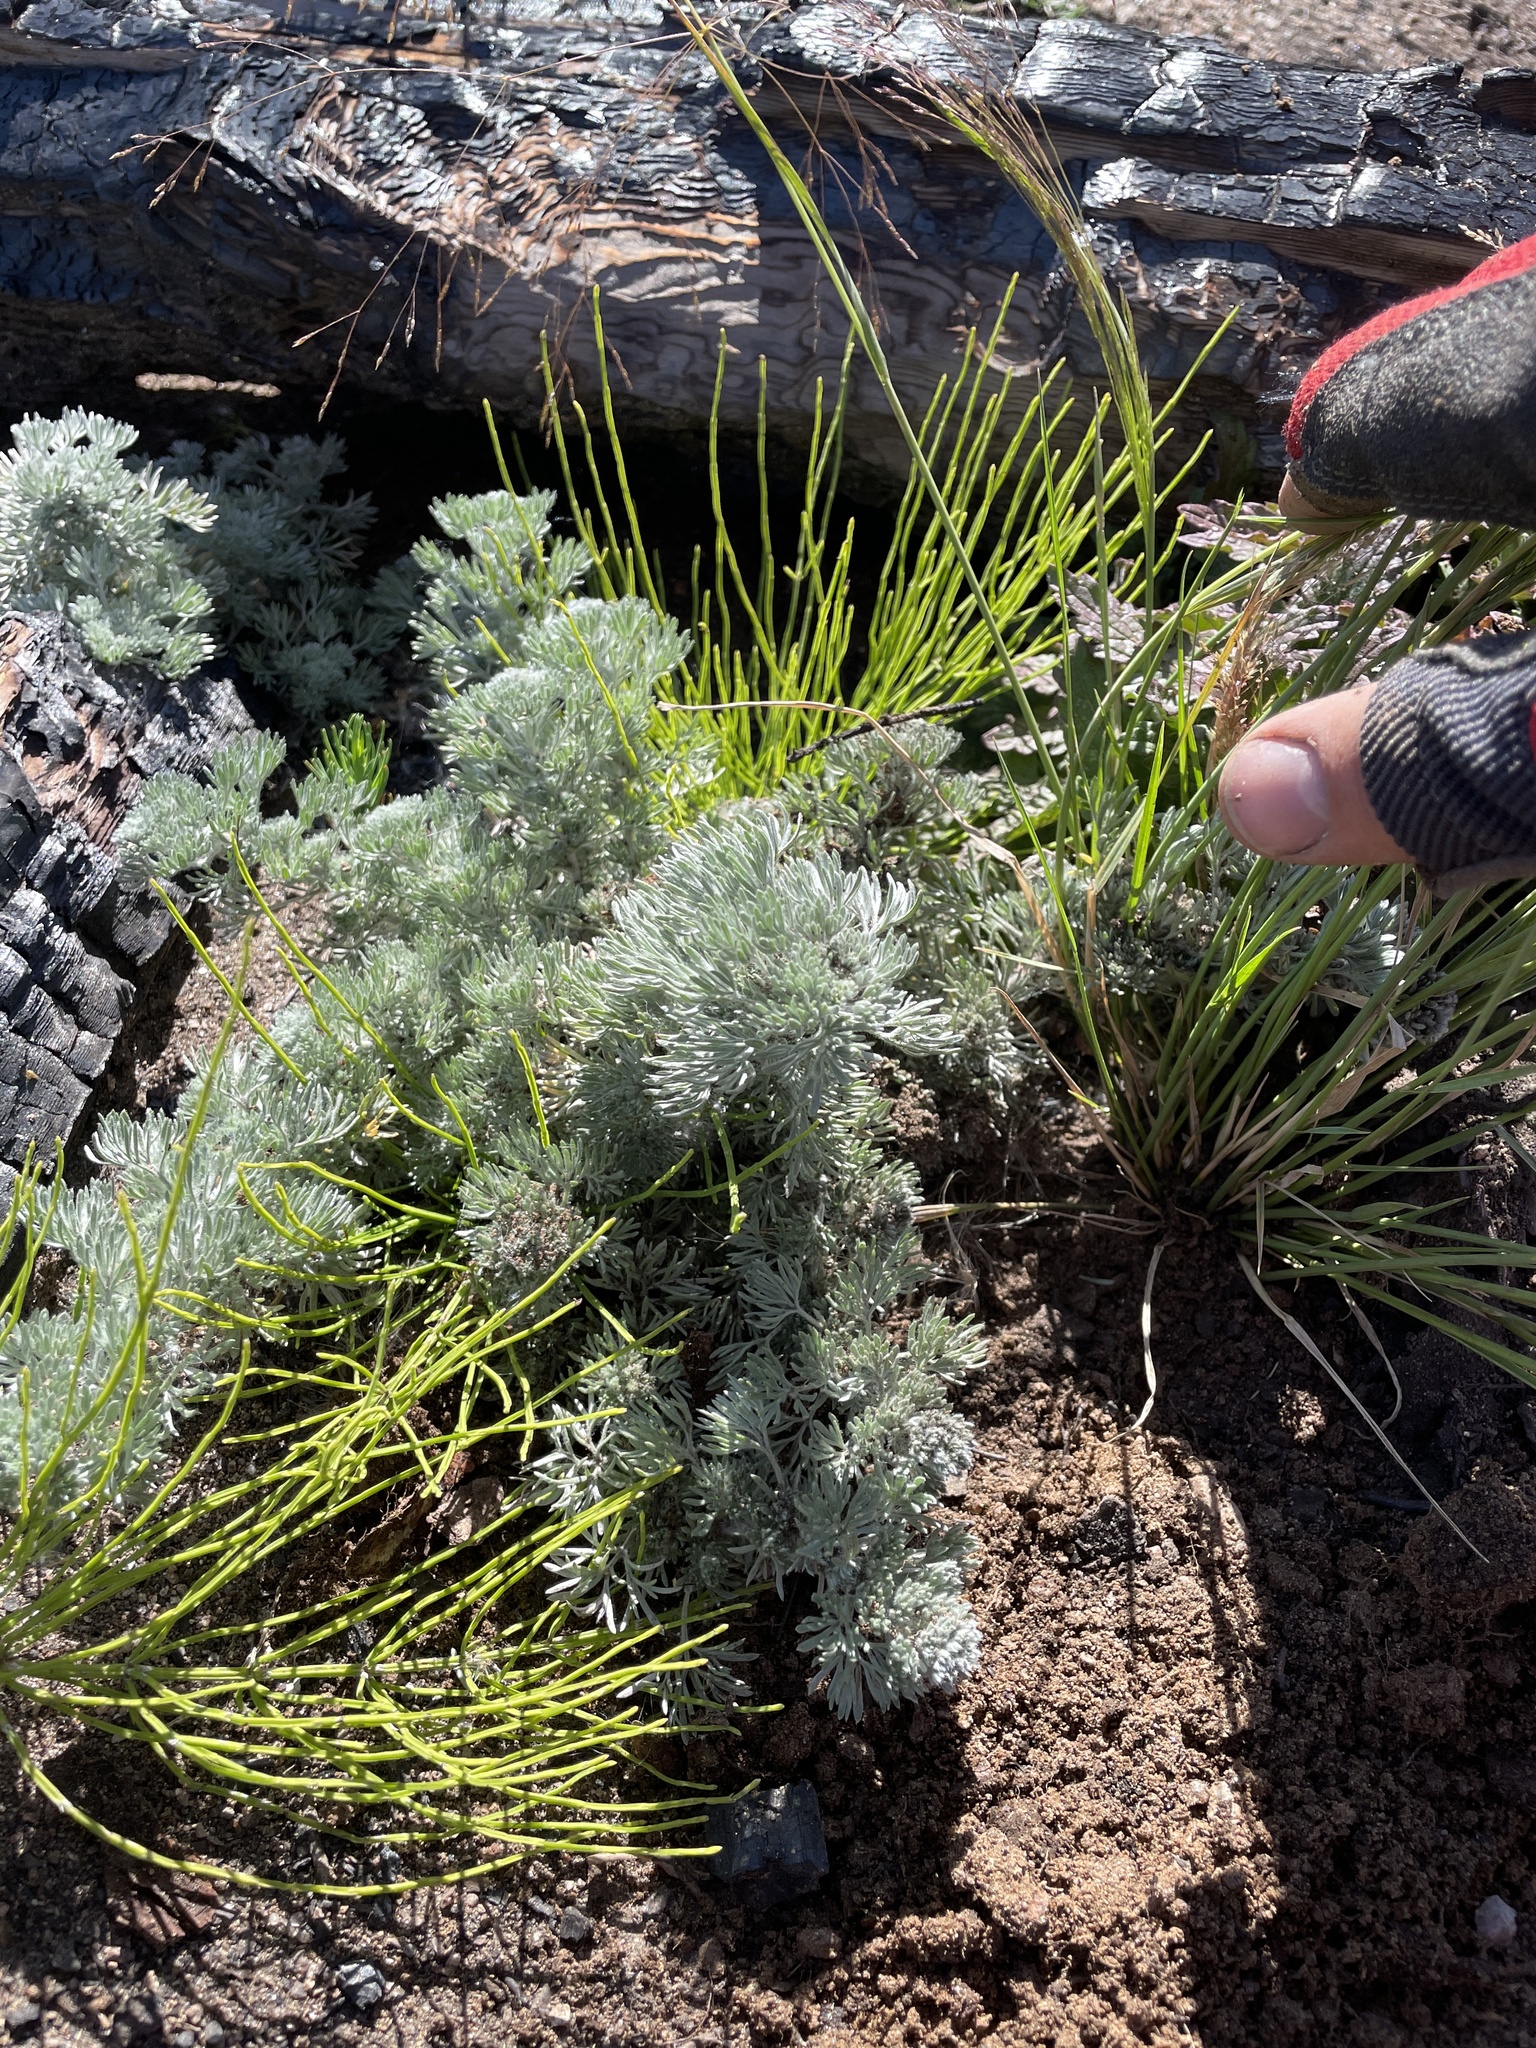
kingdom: Plantae
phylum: Tracheophyta
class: Magnoliopsida
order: Asterales
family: Asteraceae
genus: Artemisia
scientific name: Artemisia frigida
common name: Prairie sagewort
